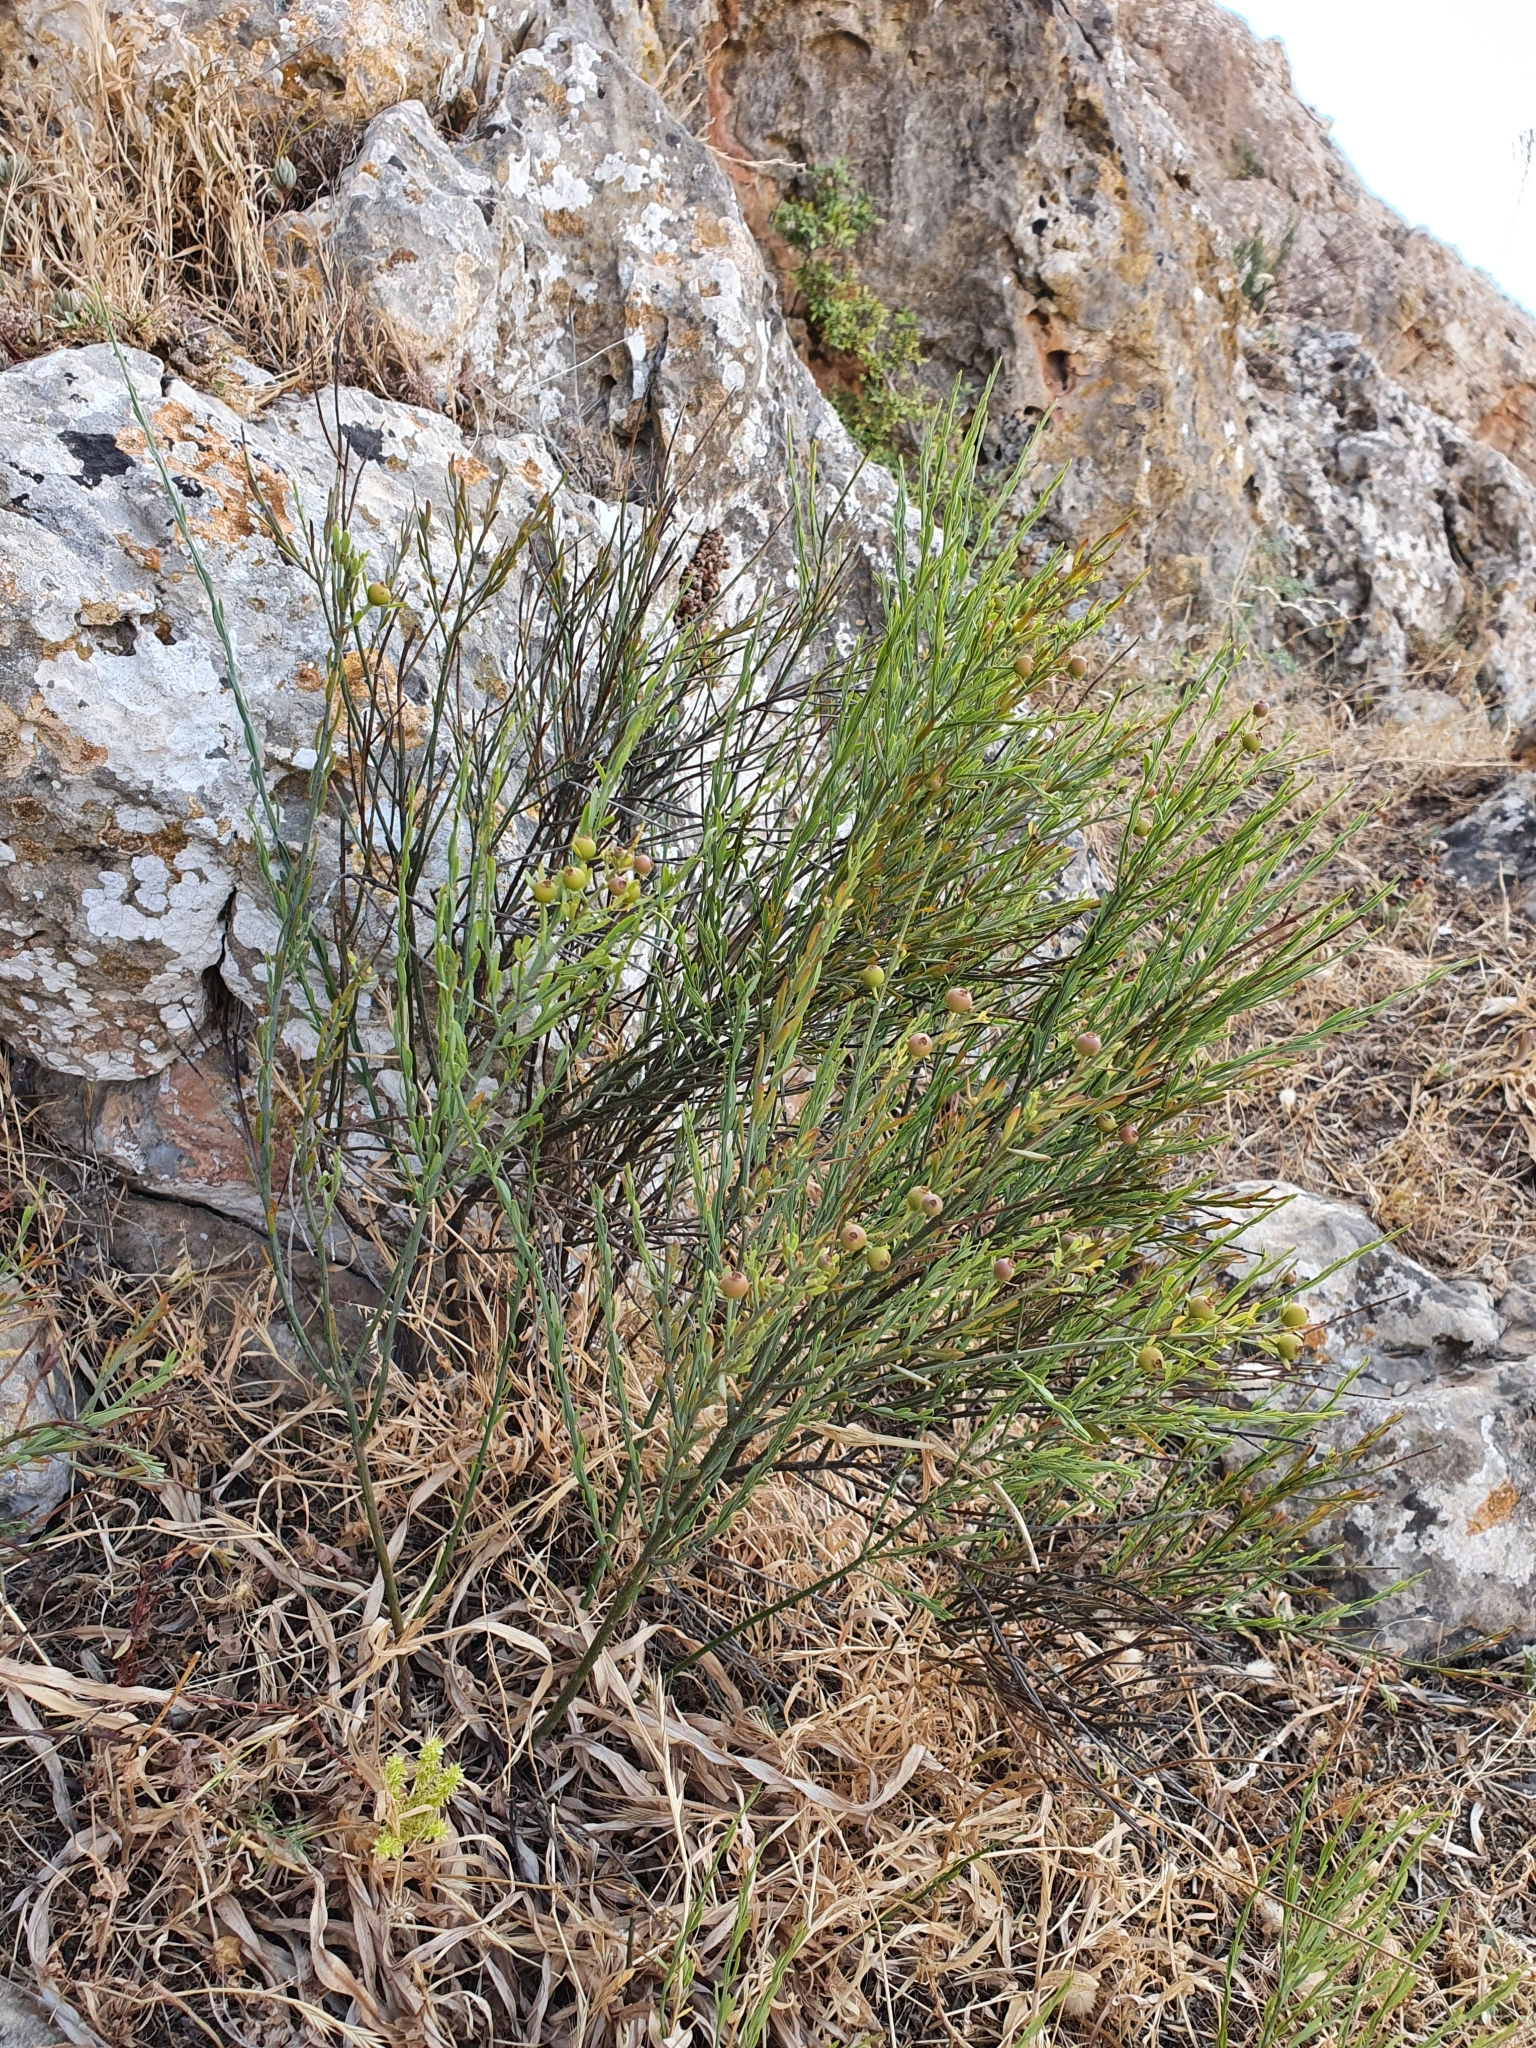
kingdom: Plantae
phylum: Tracheophyta
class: Magnoliopsida
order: Santalales
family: Santalaceae
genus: Osyris
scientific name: Osyris alba
